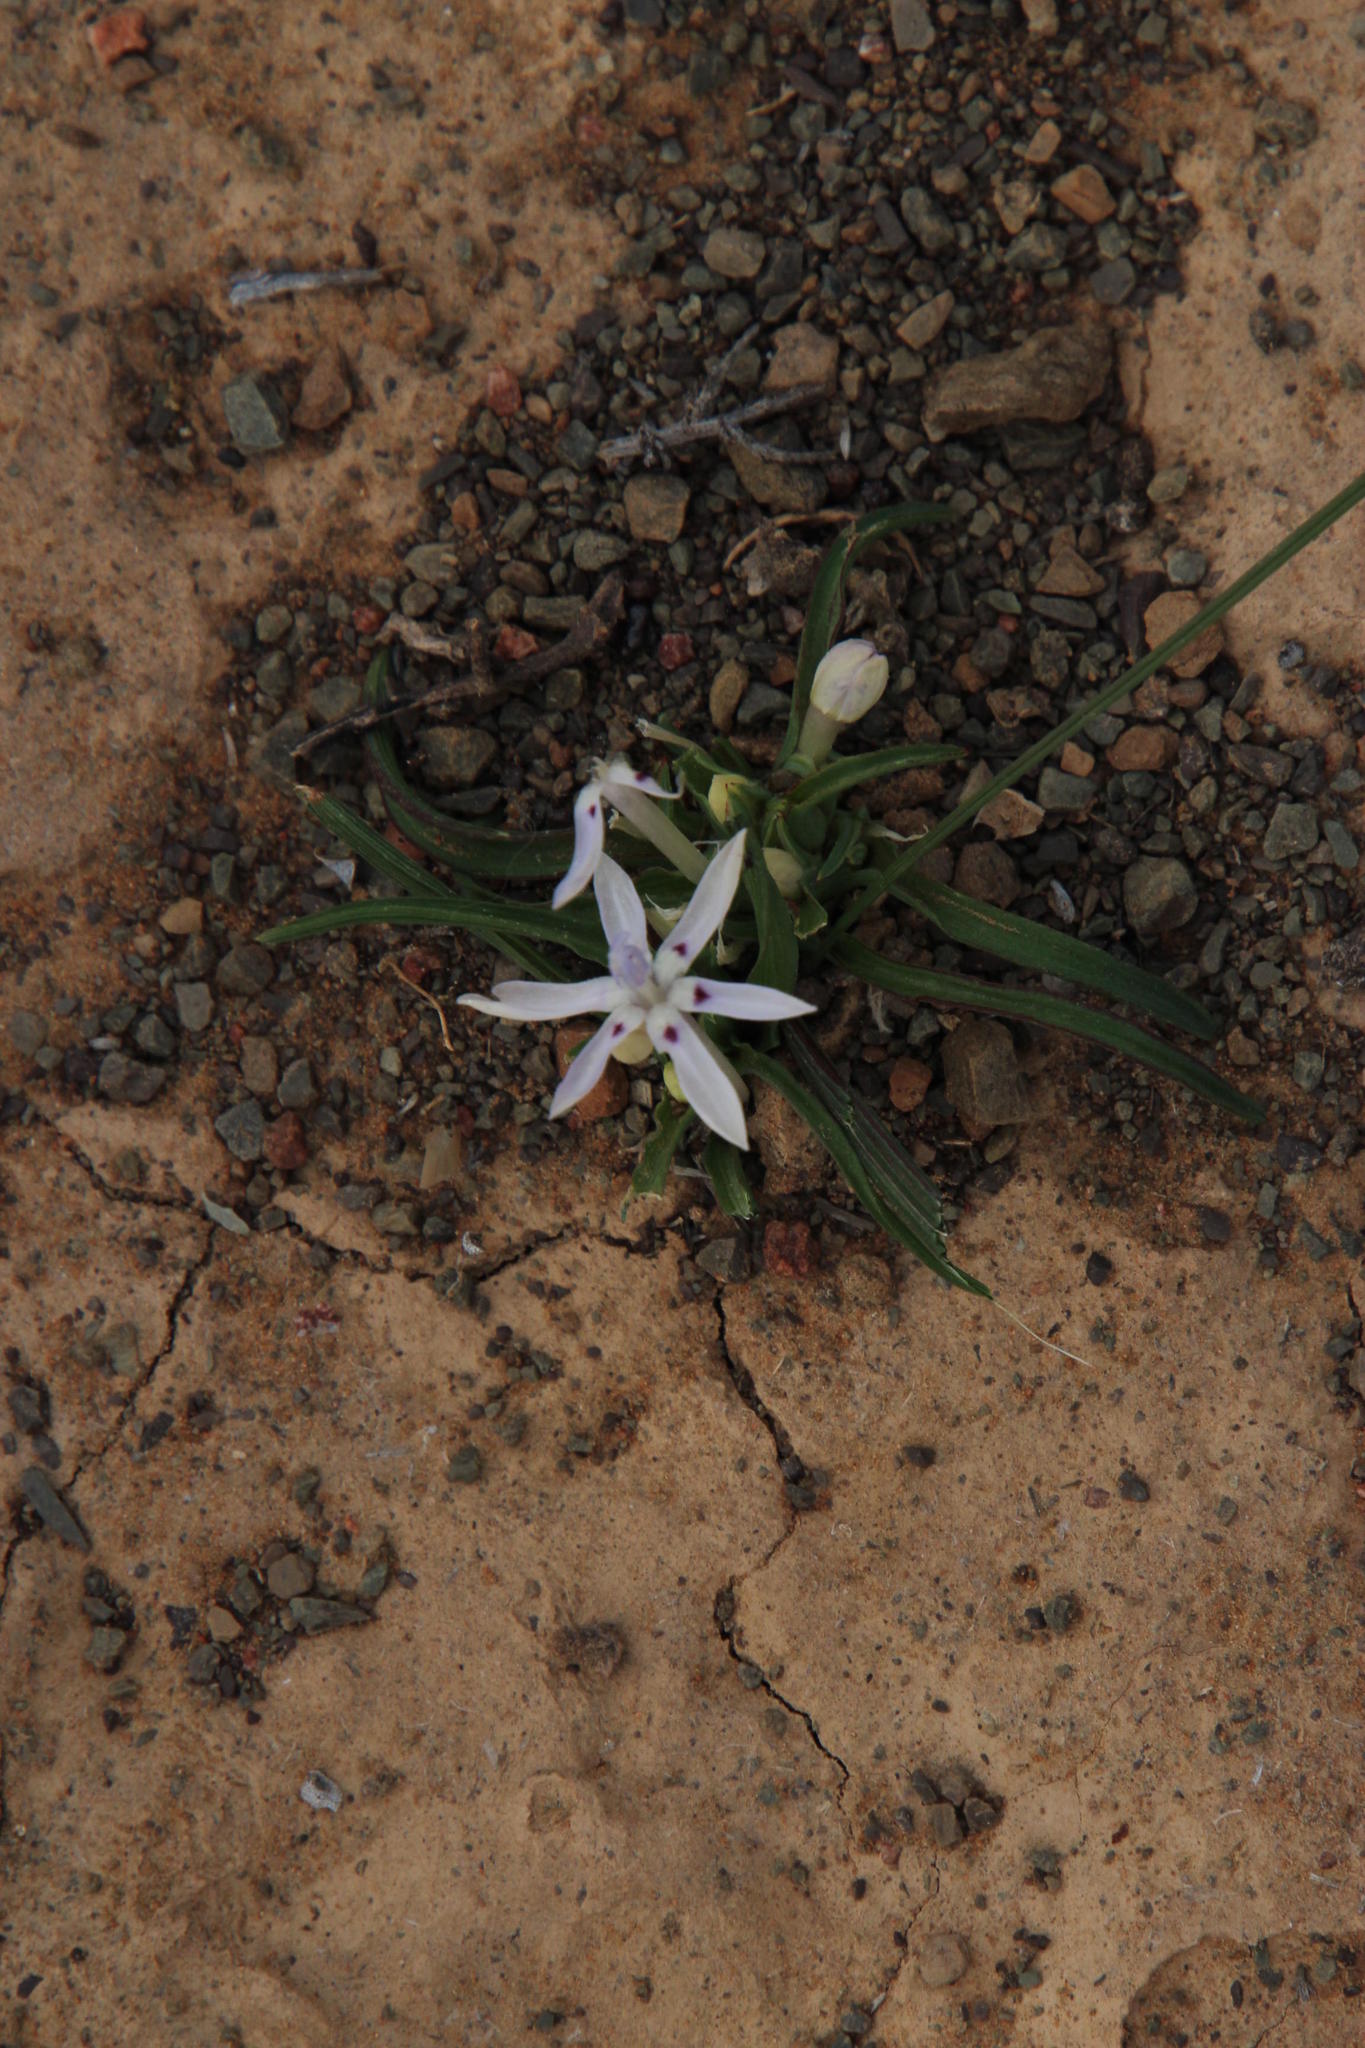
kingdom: Plantae
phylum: Tracheophyta
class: Liliopsida
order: Asparagales
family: Iridaceae
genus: Lapeirousia
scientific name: Lapeirousia plicata
